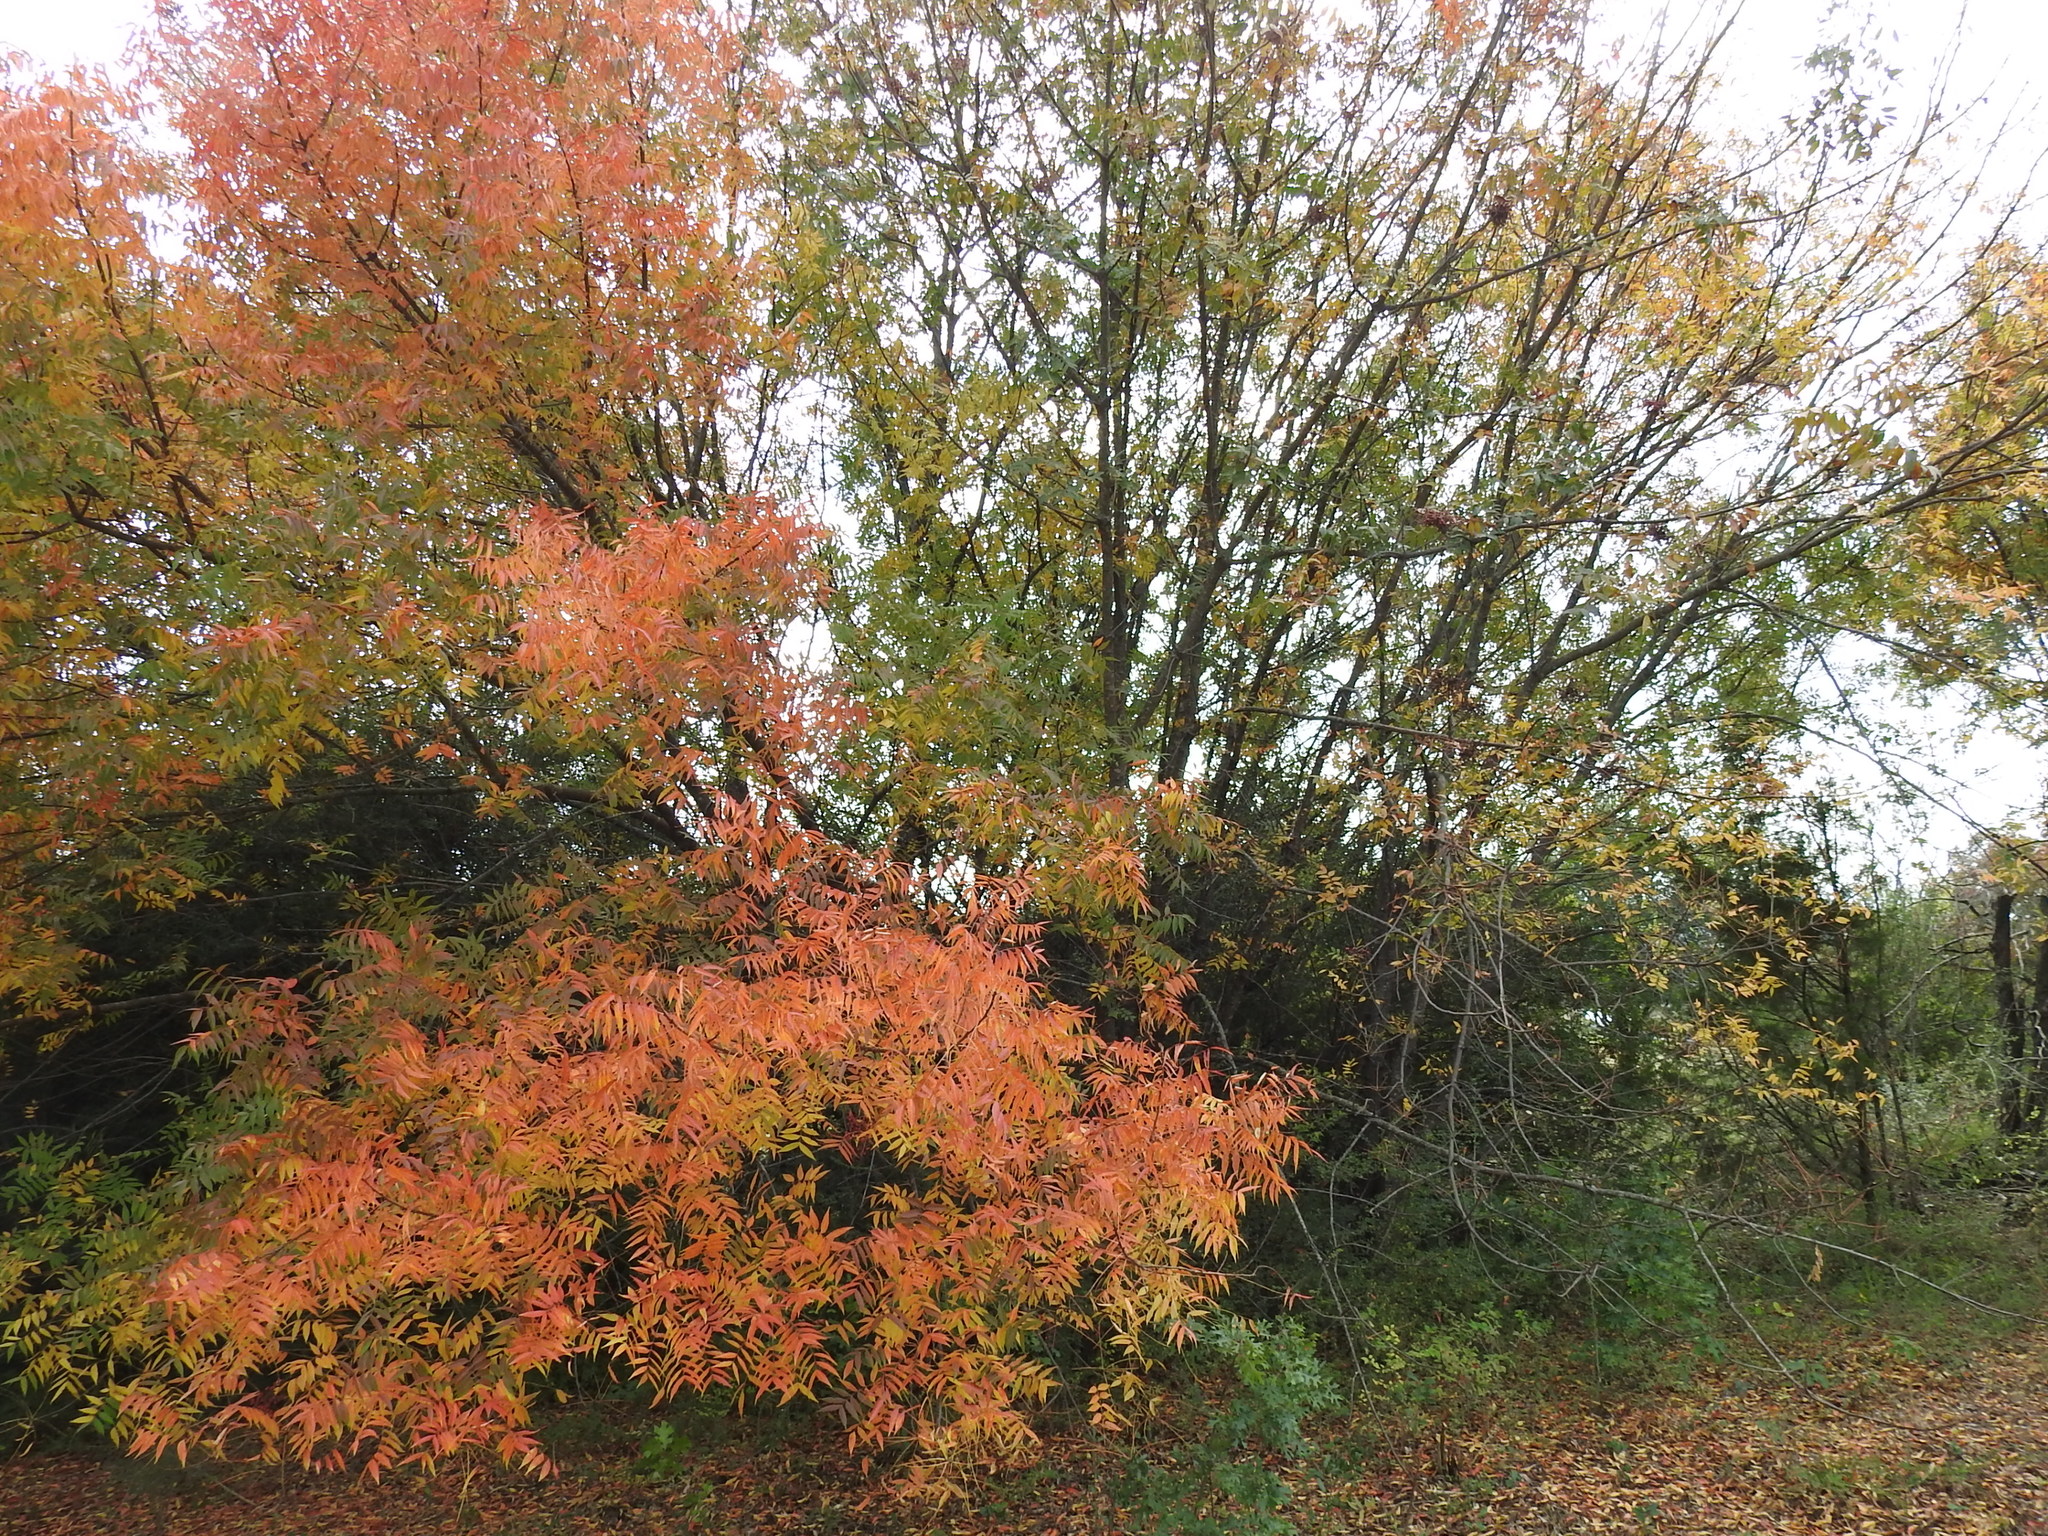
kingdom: Plantae
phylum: Tracheophyta
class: Magnoliopsida
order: Sapindales
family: Anacardiaceae
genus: Pistacia
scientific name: Pistacia chinensis
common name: Chinese pistache
